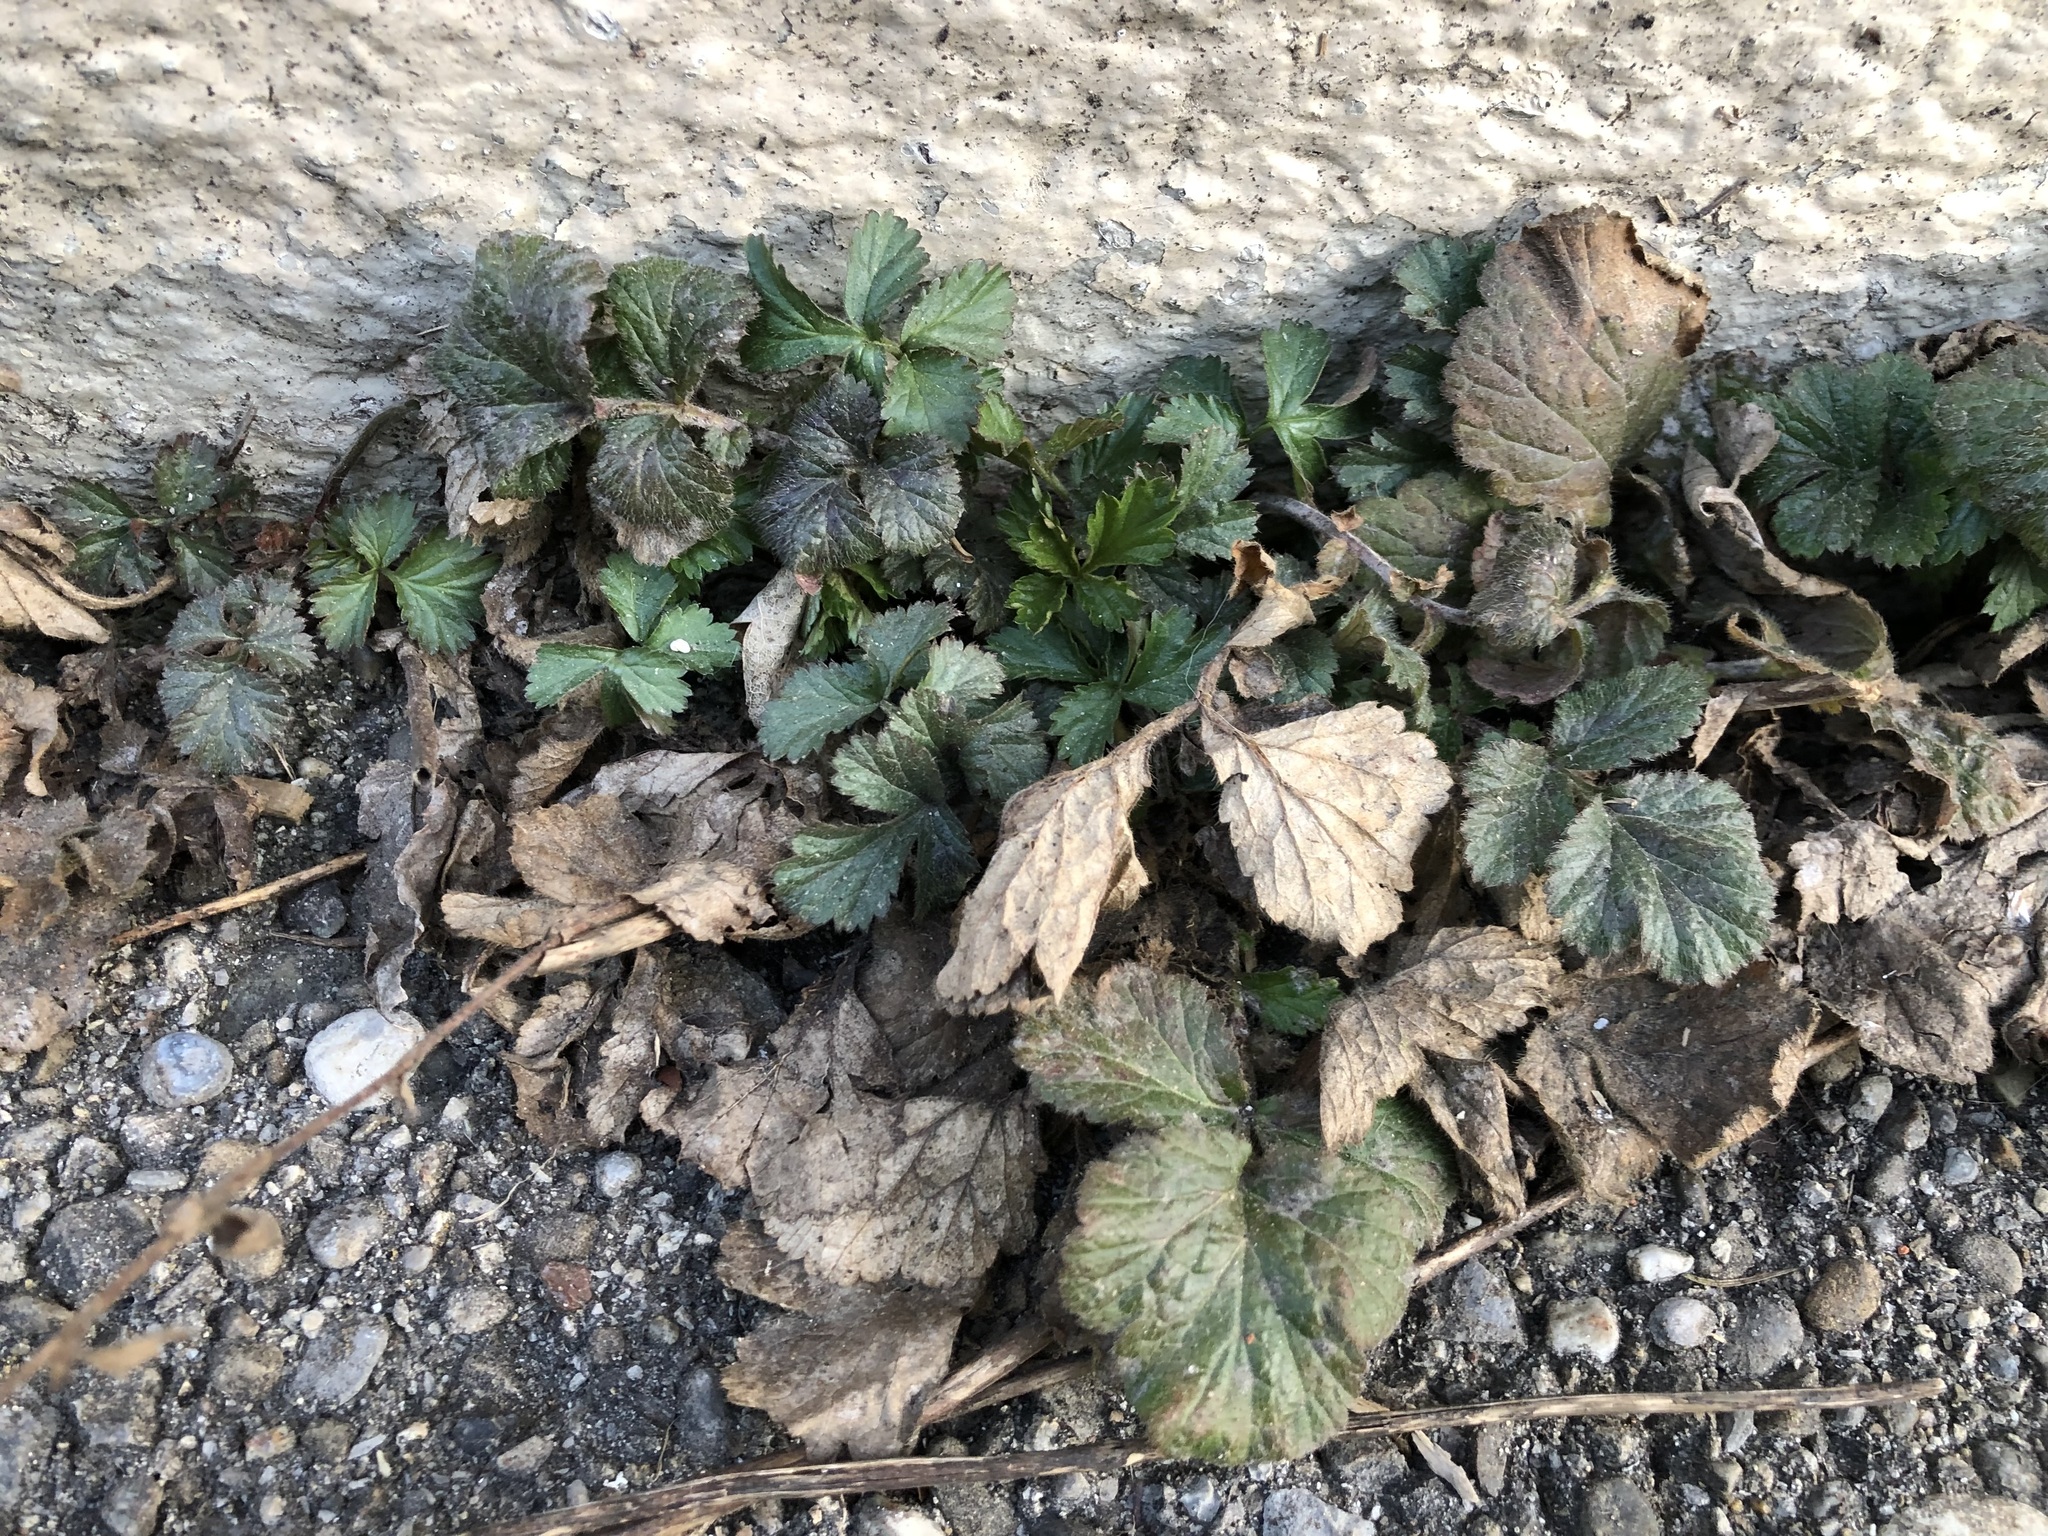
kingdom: Plantae
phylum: Tracheophyta
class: Magnoliopsida
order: Rosales
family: Rosaceae
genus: Geum
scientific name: Geum urbanum
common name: Wood avens
